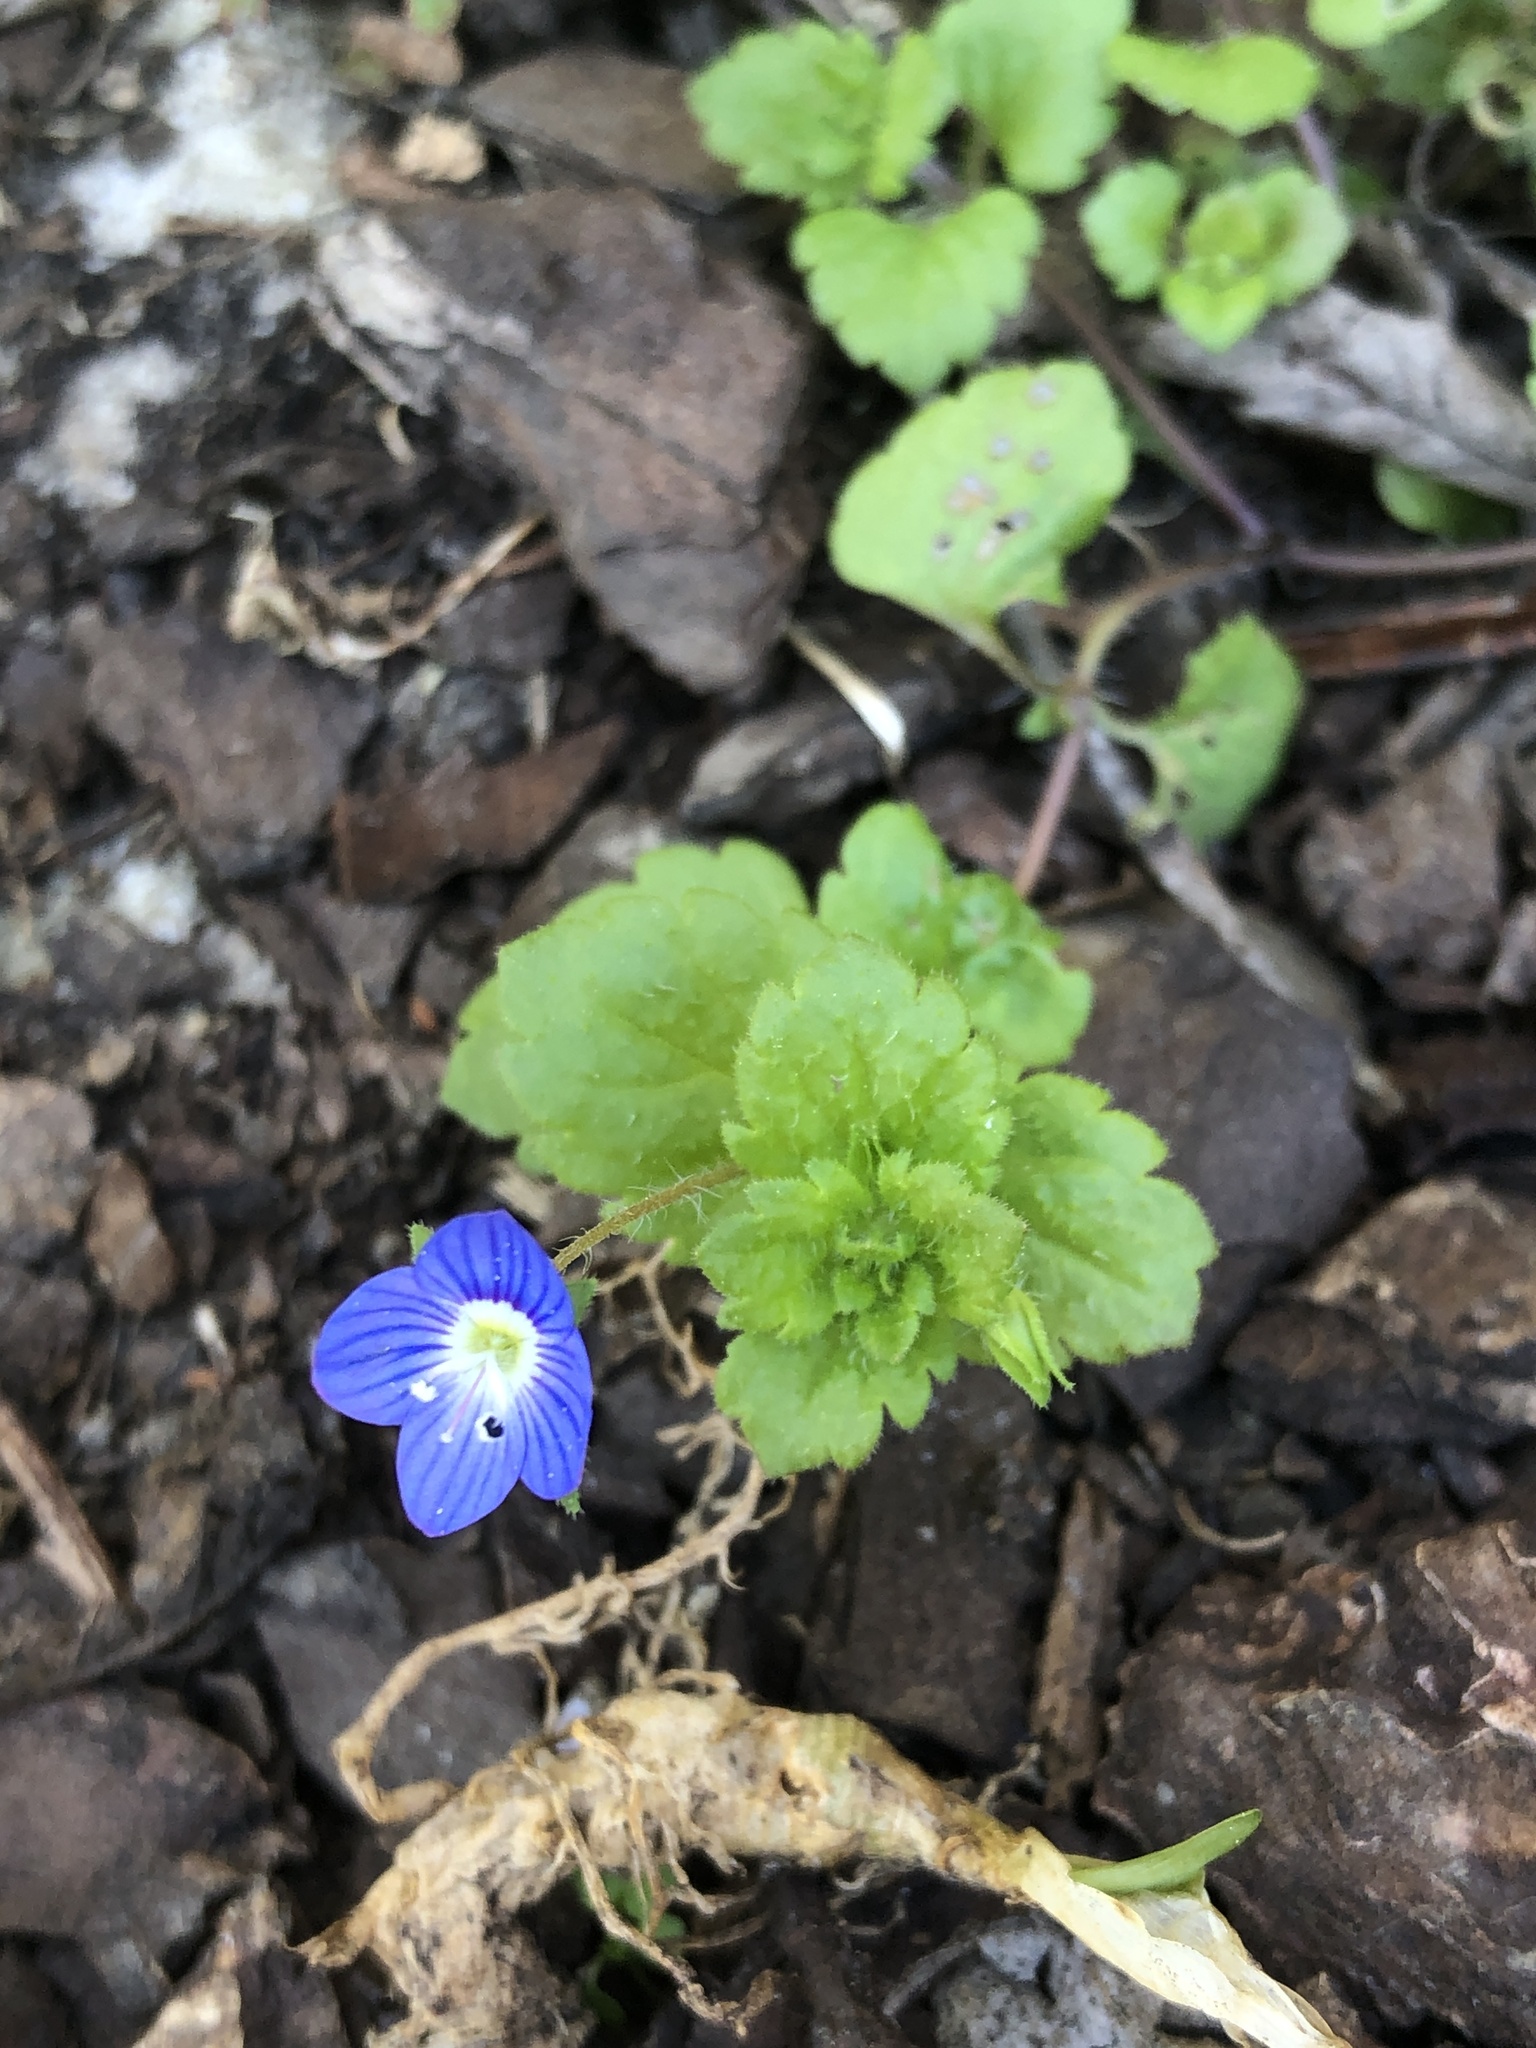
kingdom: Plantae
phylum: Tracheophyta
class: Magnoliopsida
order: Lamiales
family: Plantaginaceae
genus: Veronica
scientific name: Veronica persica
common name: Common field-speedwell
